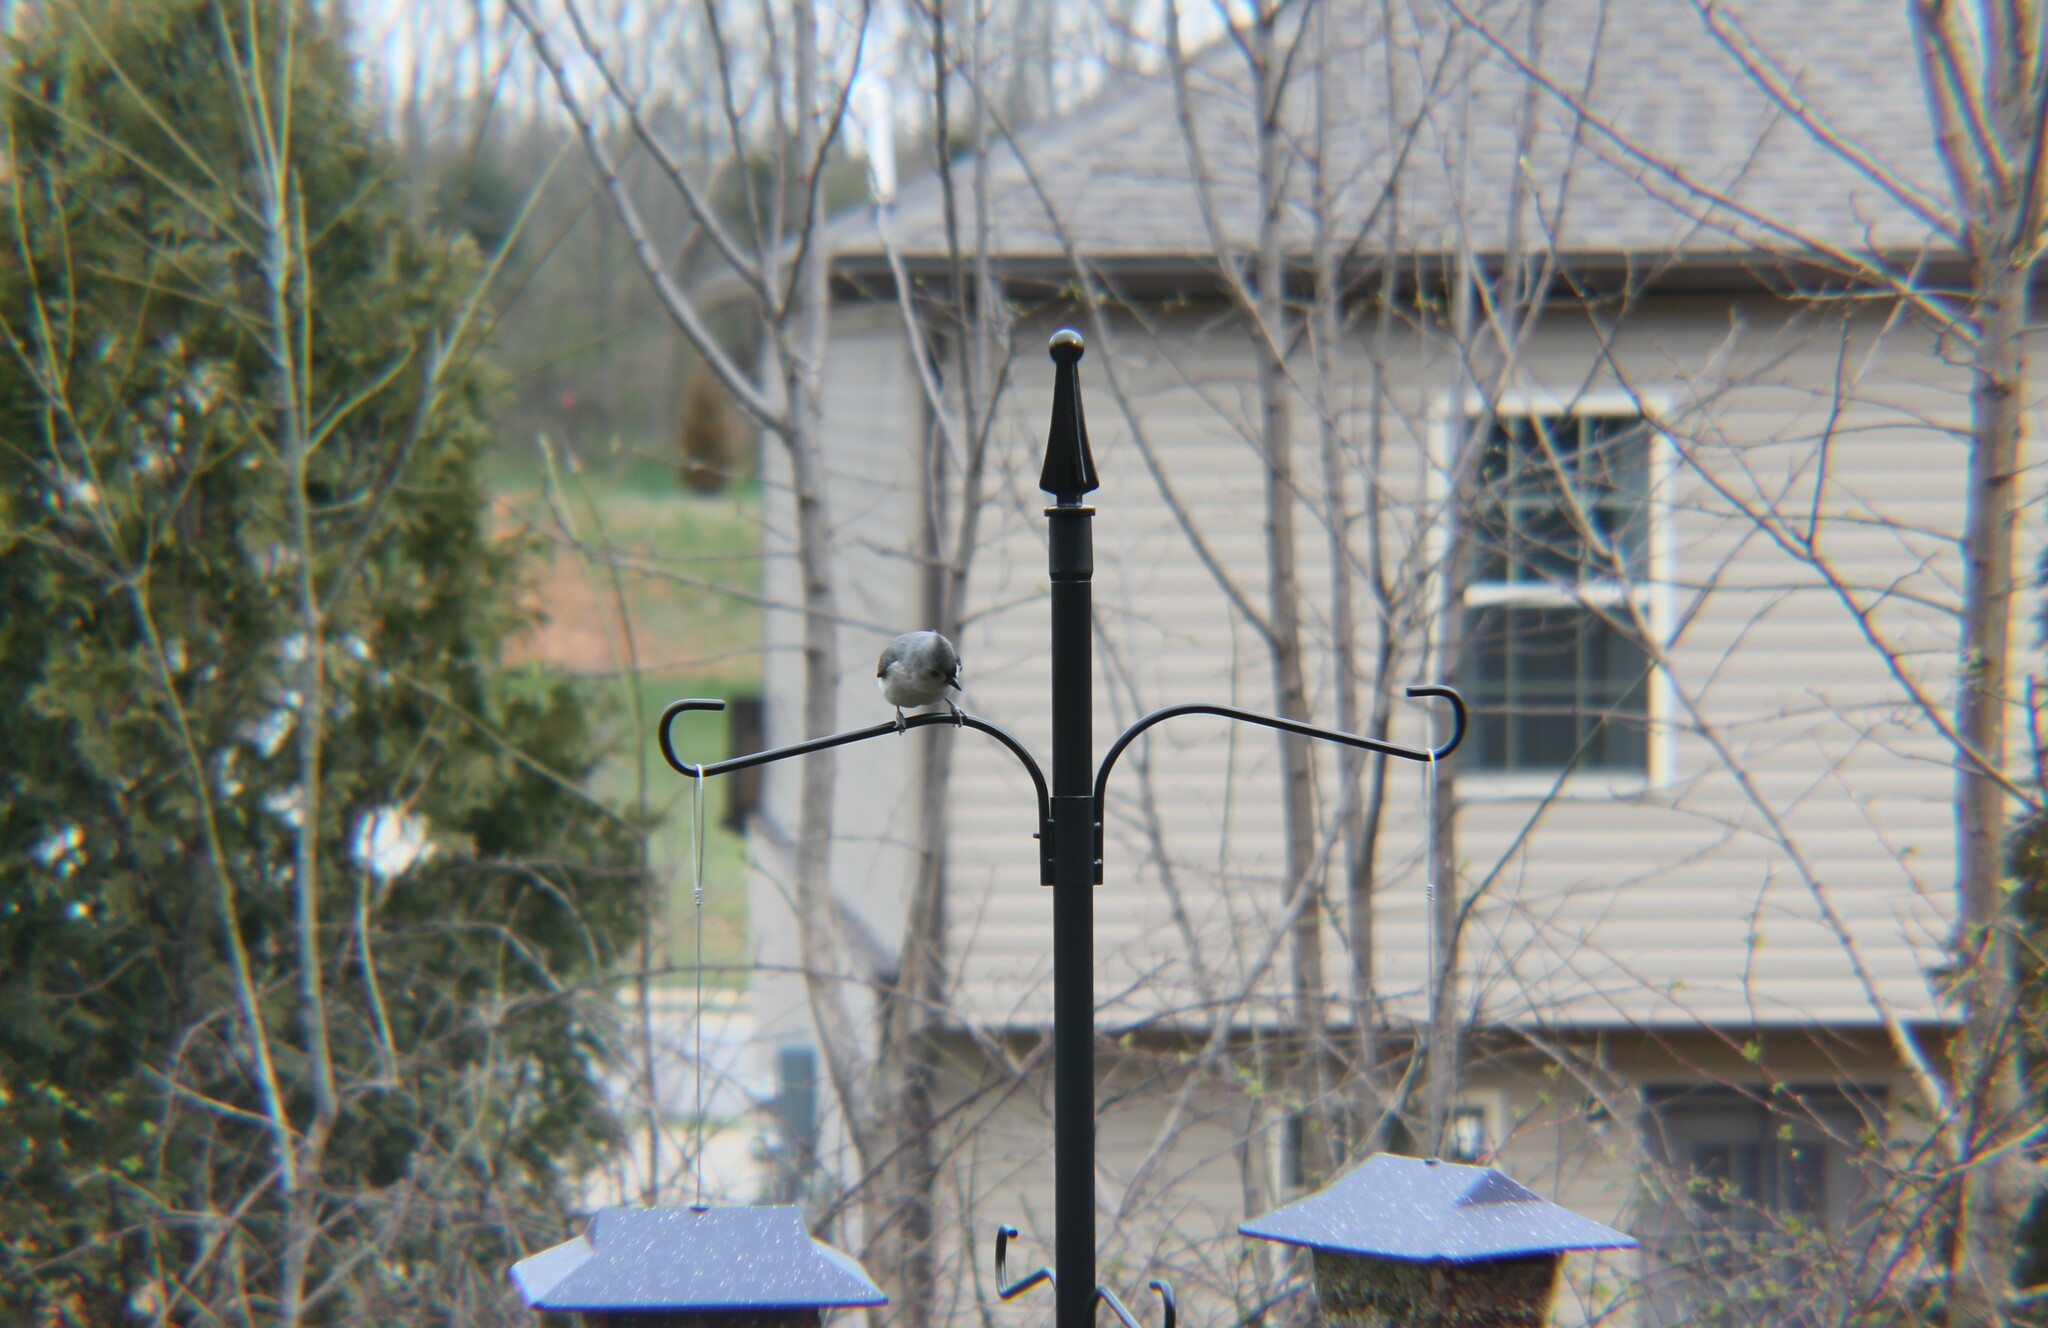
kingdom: Animalia
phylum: Chordata
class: Aves
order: Passeriformes
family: Paridae
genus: Baeolophus
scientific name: Baeolophus bicolor
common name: Tufted titmouse
